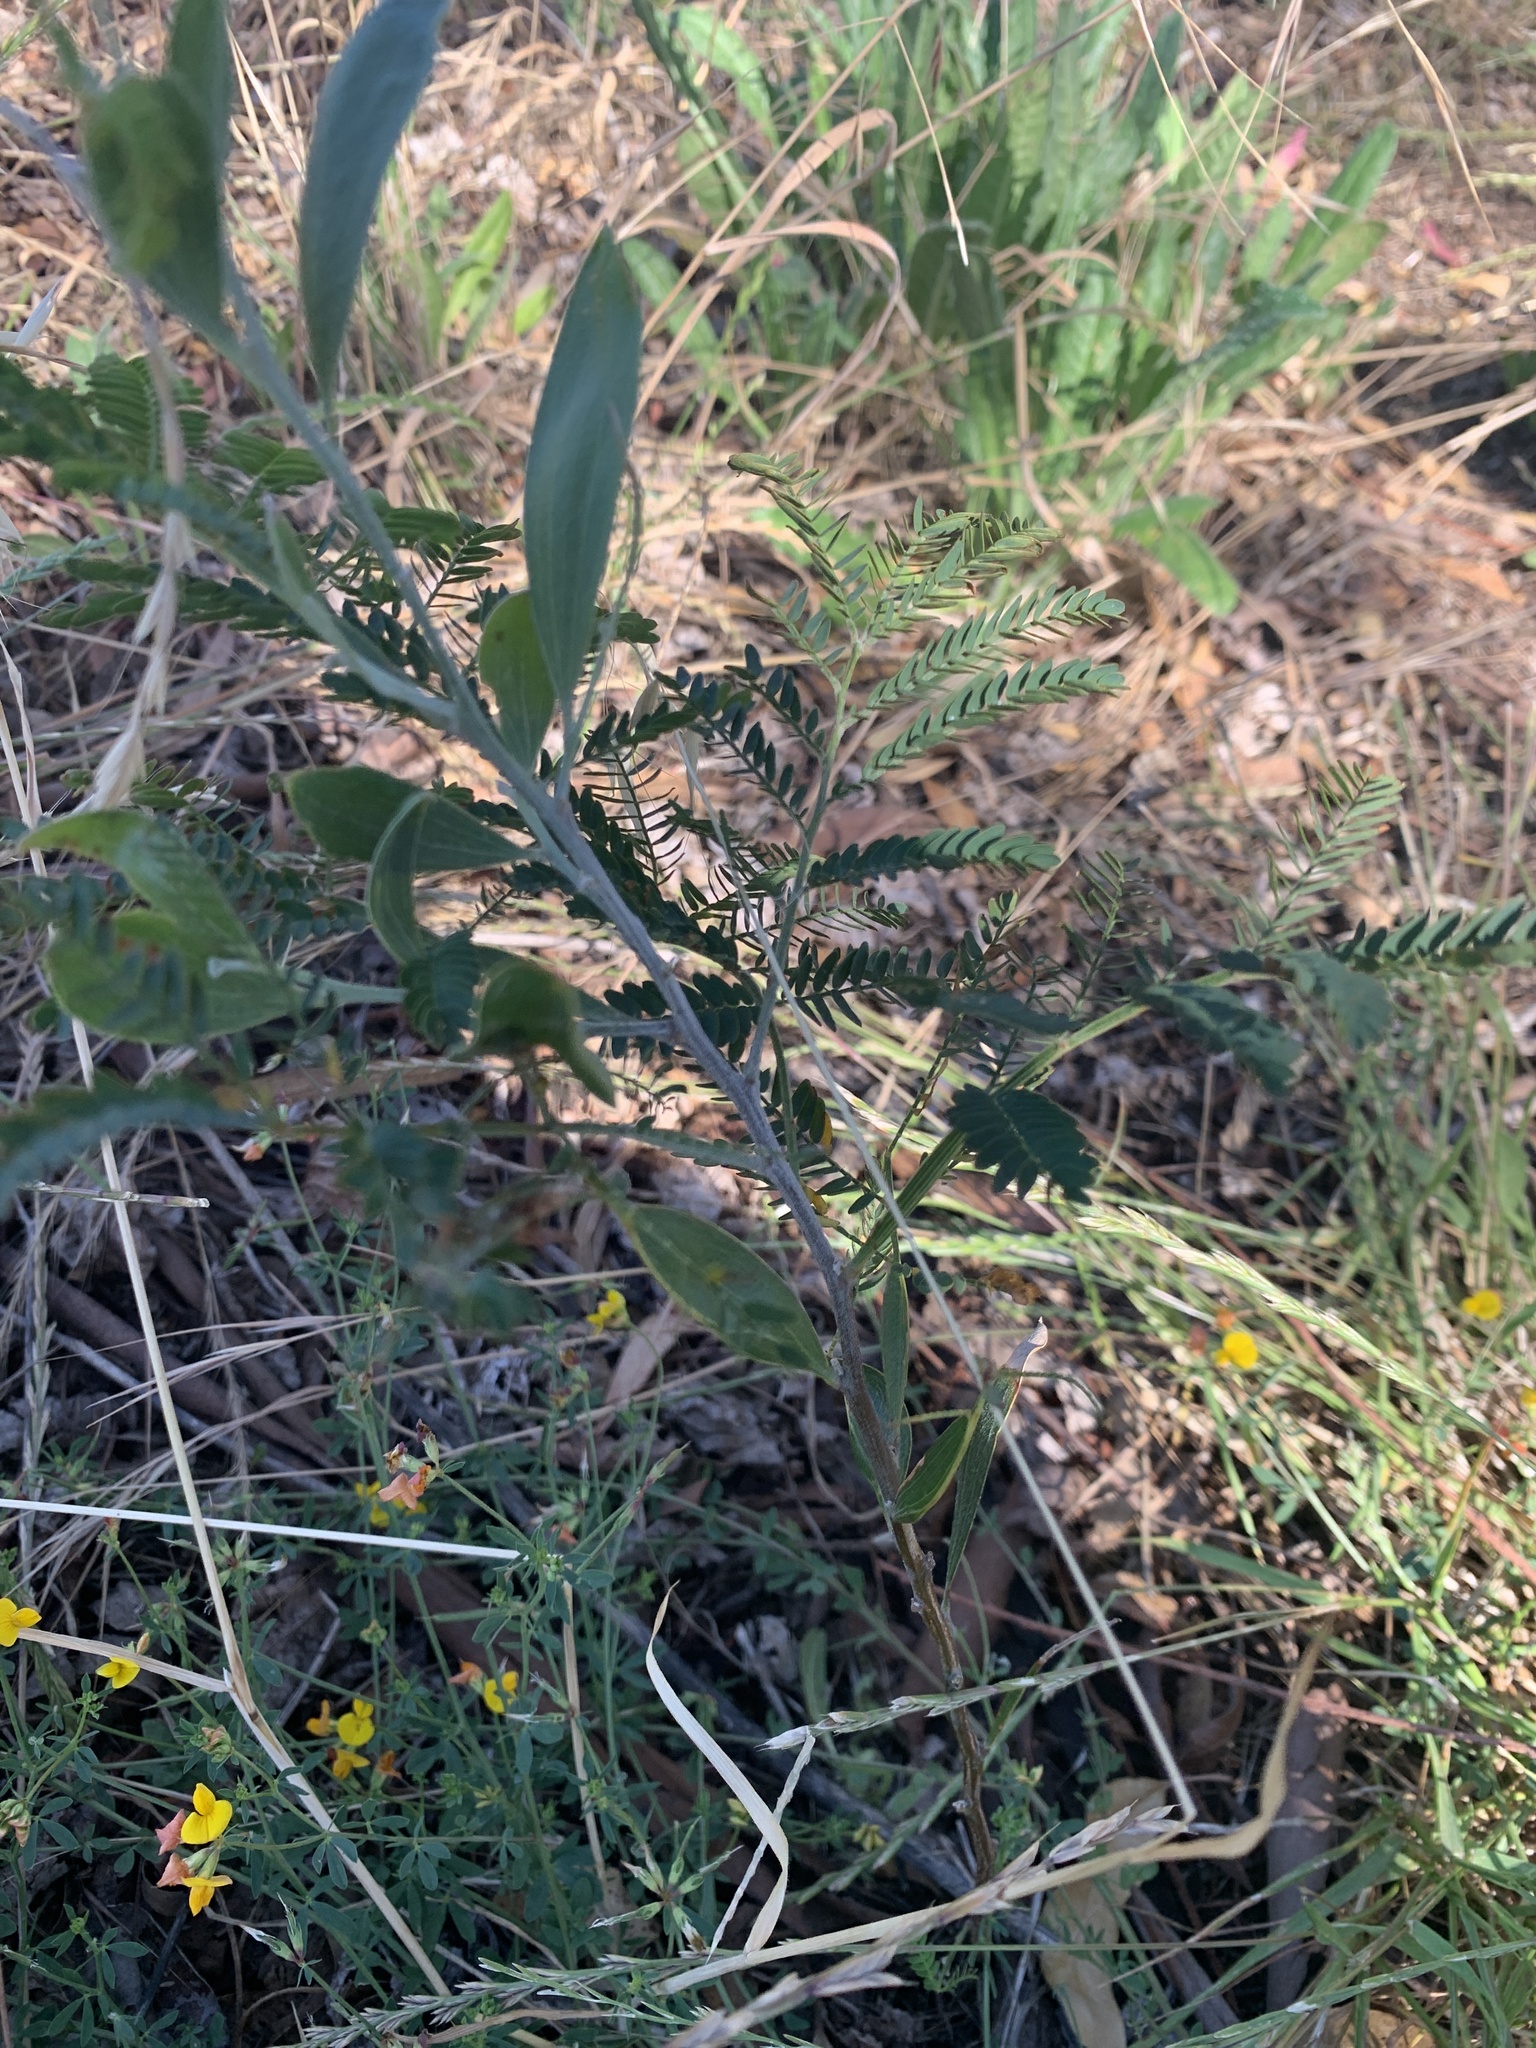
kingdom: Plantae
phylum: Tracheophyta
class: Magnoliopsida
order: Fabales
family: Fabaceae
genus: Acacia
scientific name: Acacia melanoxylon
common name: Blackwood
